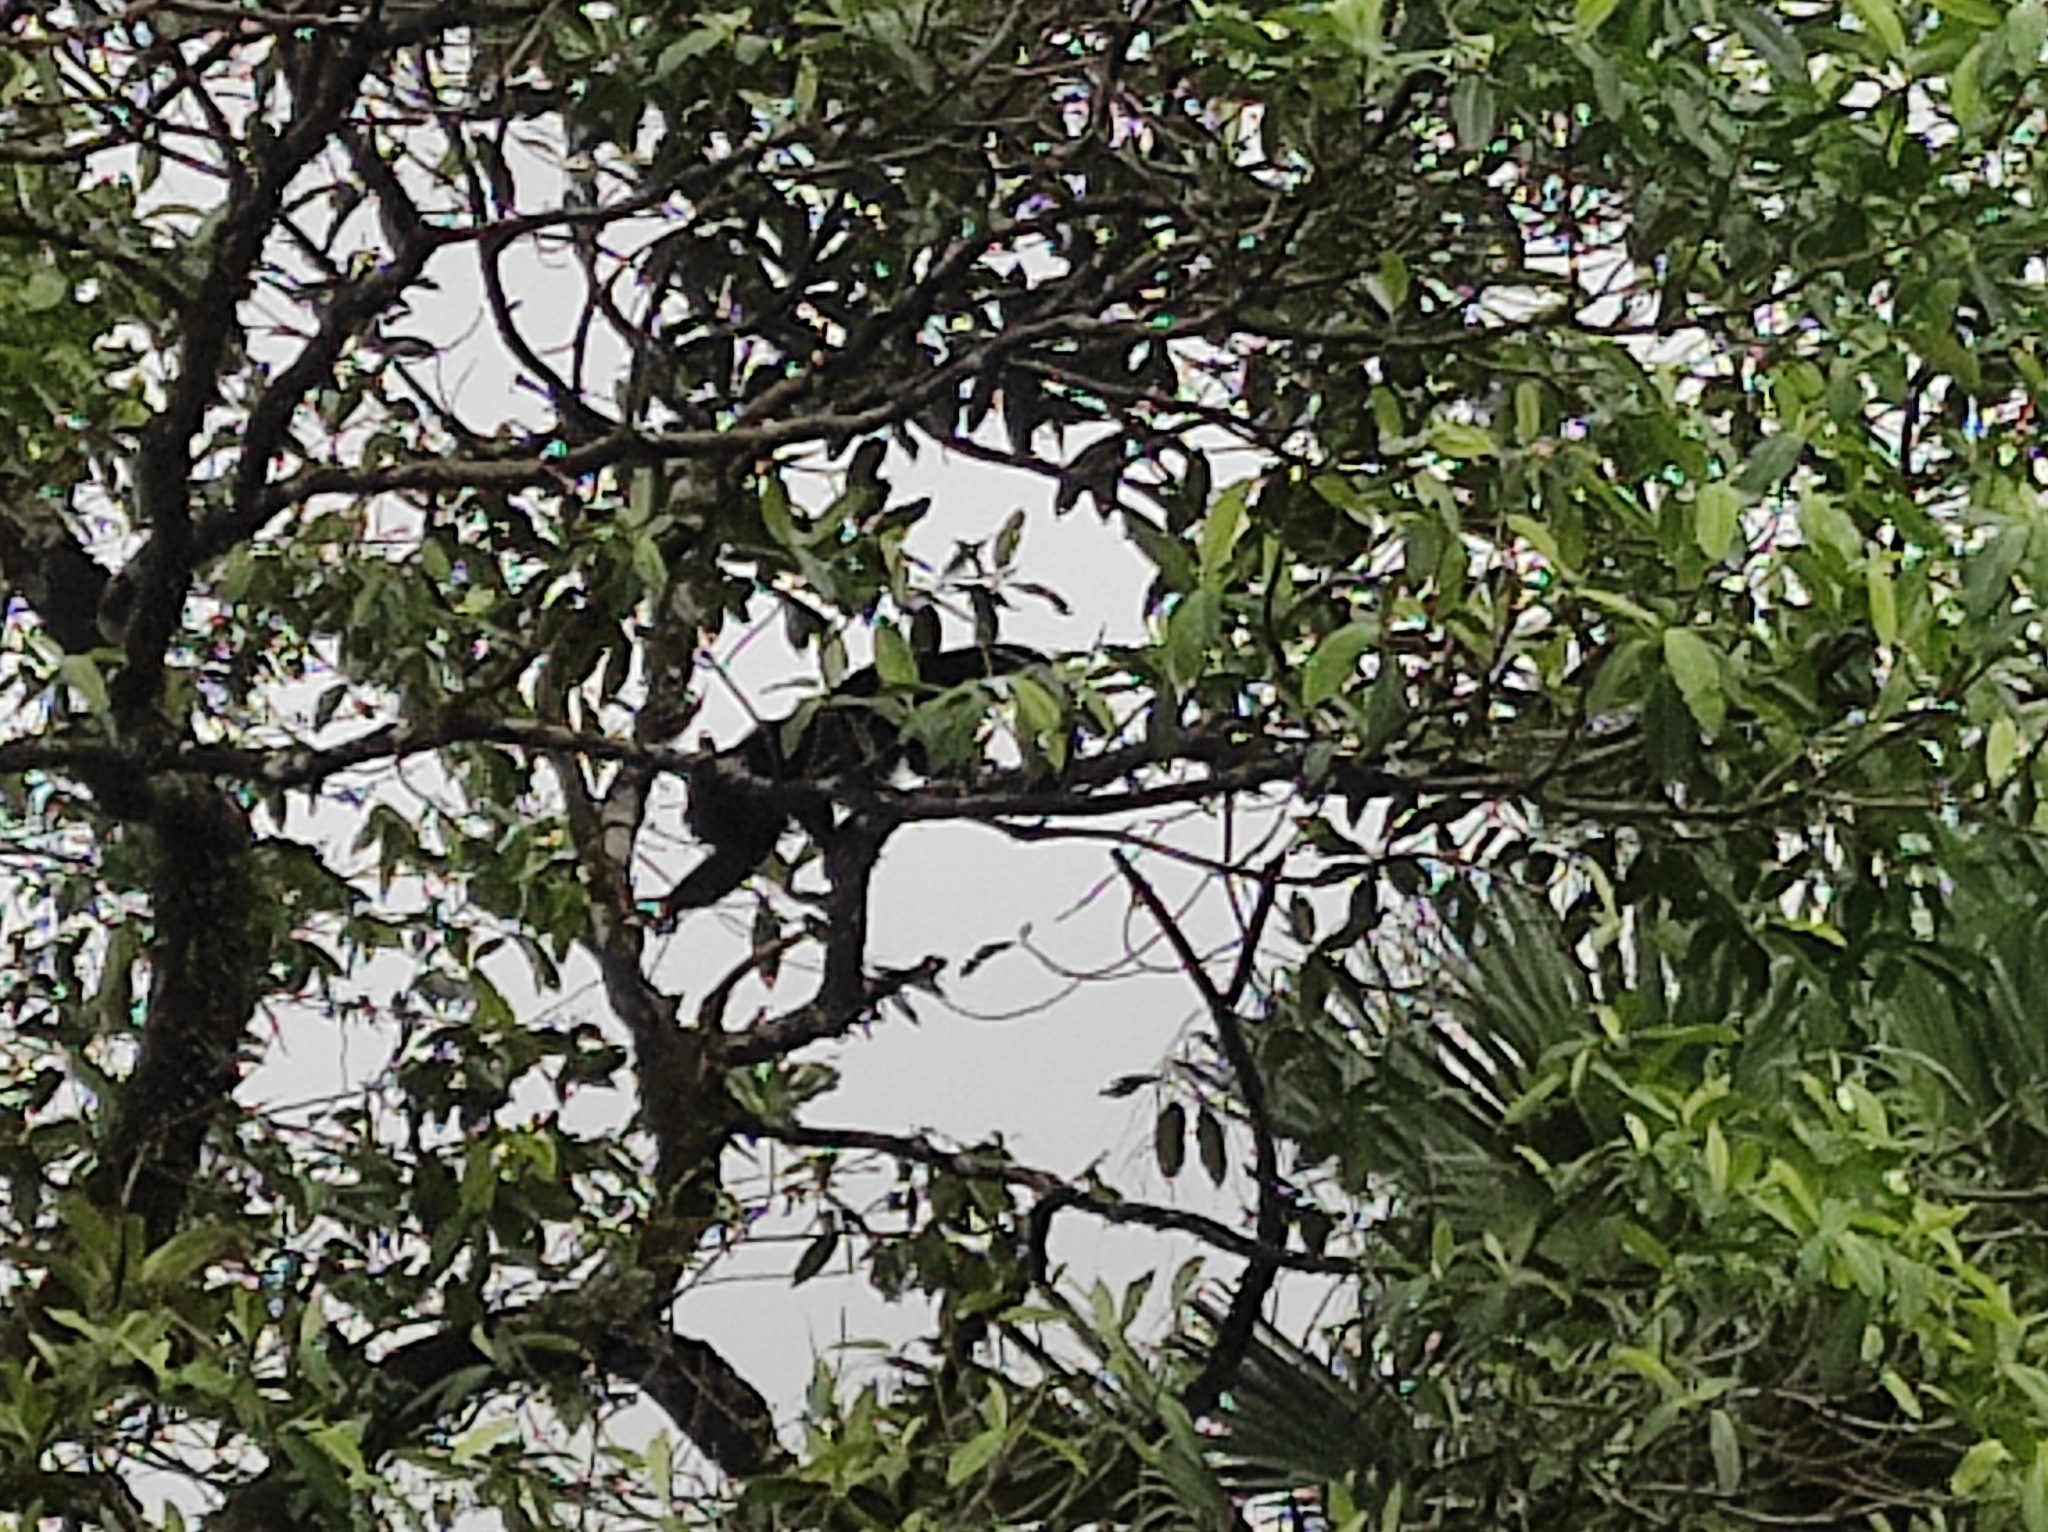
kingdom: Animalia
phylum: Chordata
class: Mammalia
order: Primates
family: Atelidae
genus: Alouatta
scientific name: Alouatta palliata
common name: Mantled howler
